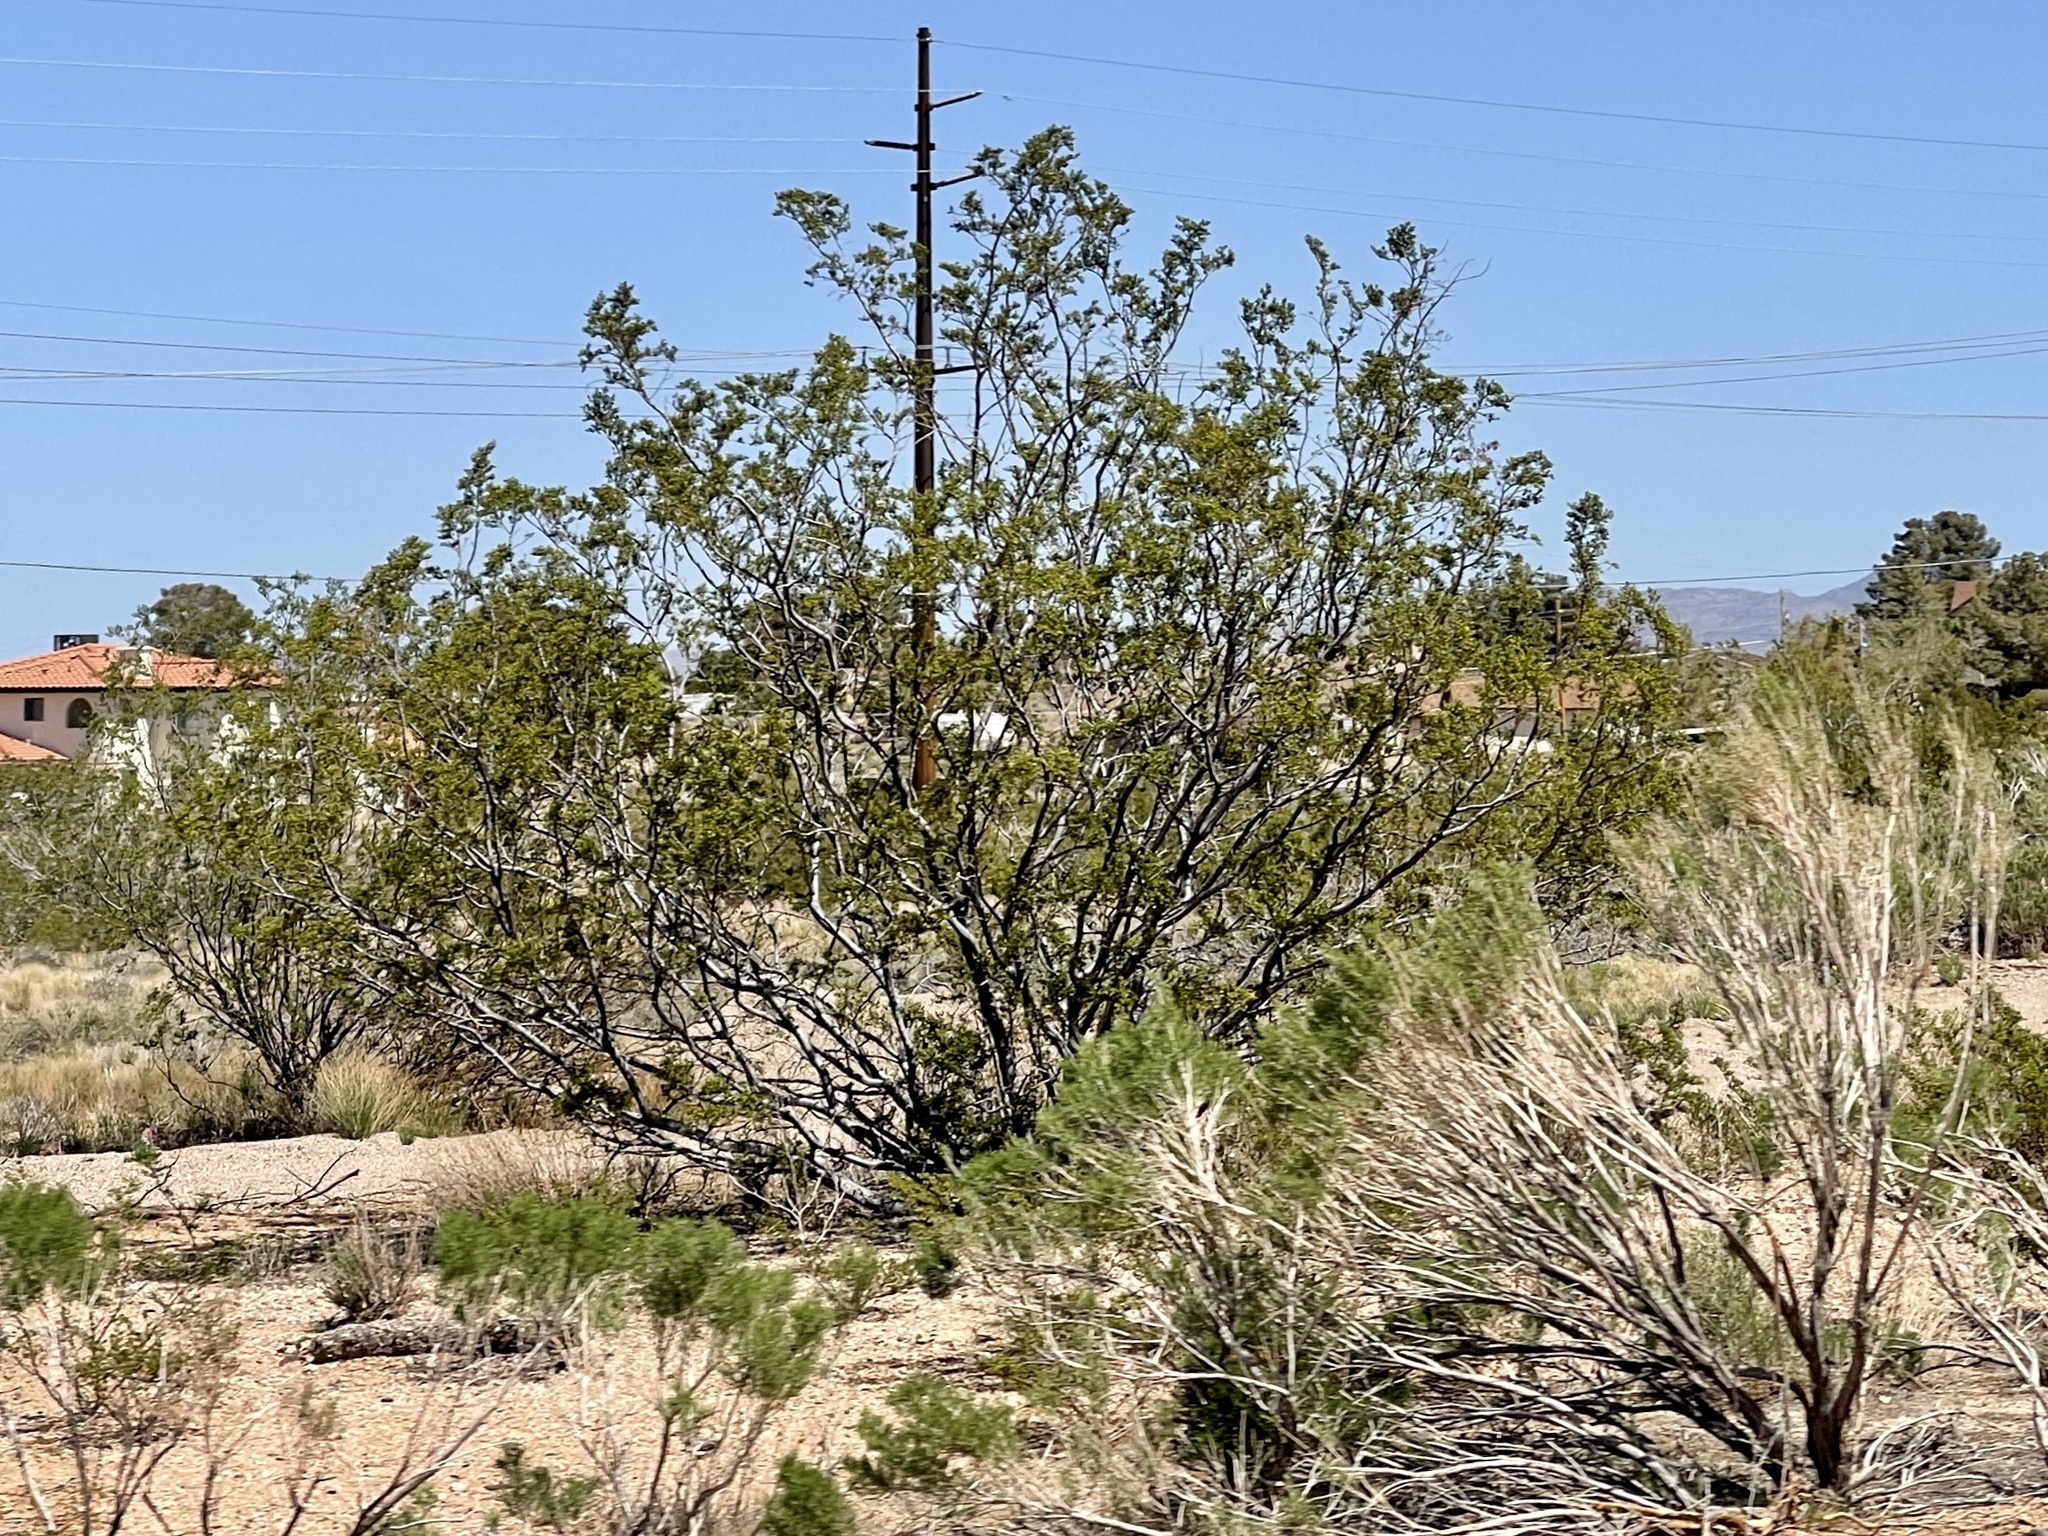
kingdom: Plantae
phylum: Tracheophyta
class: Magnoliopsida
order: Zygophyllales
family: Zygophyllaceae
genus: Larrea
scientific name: Larrea tridentata
